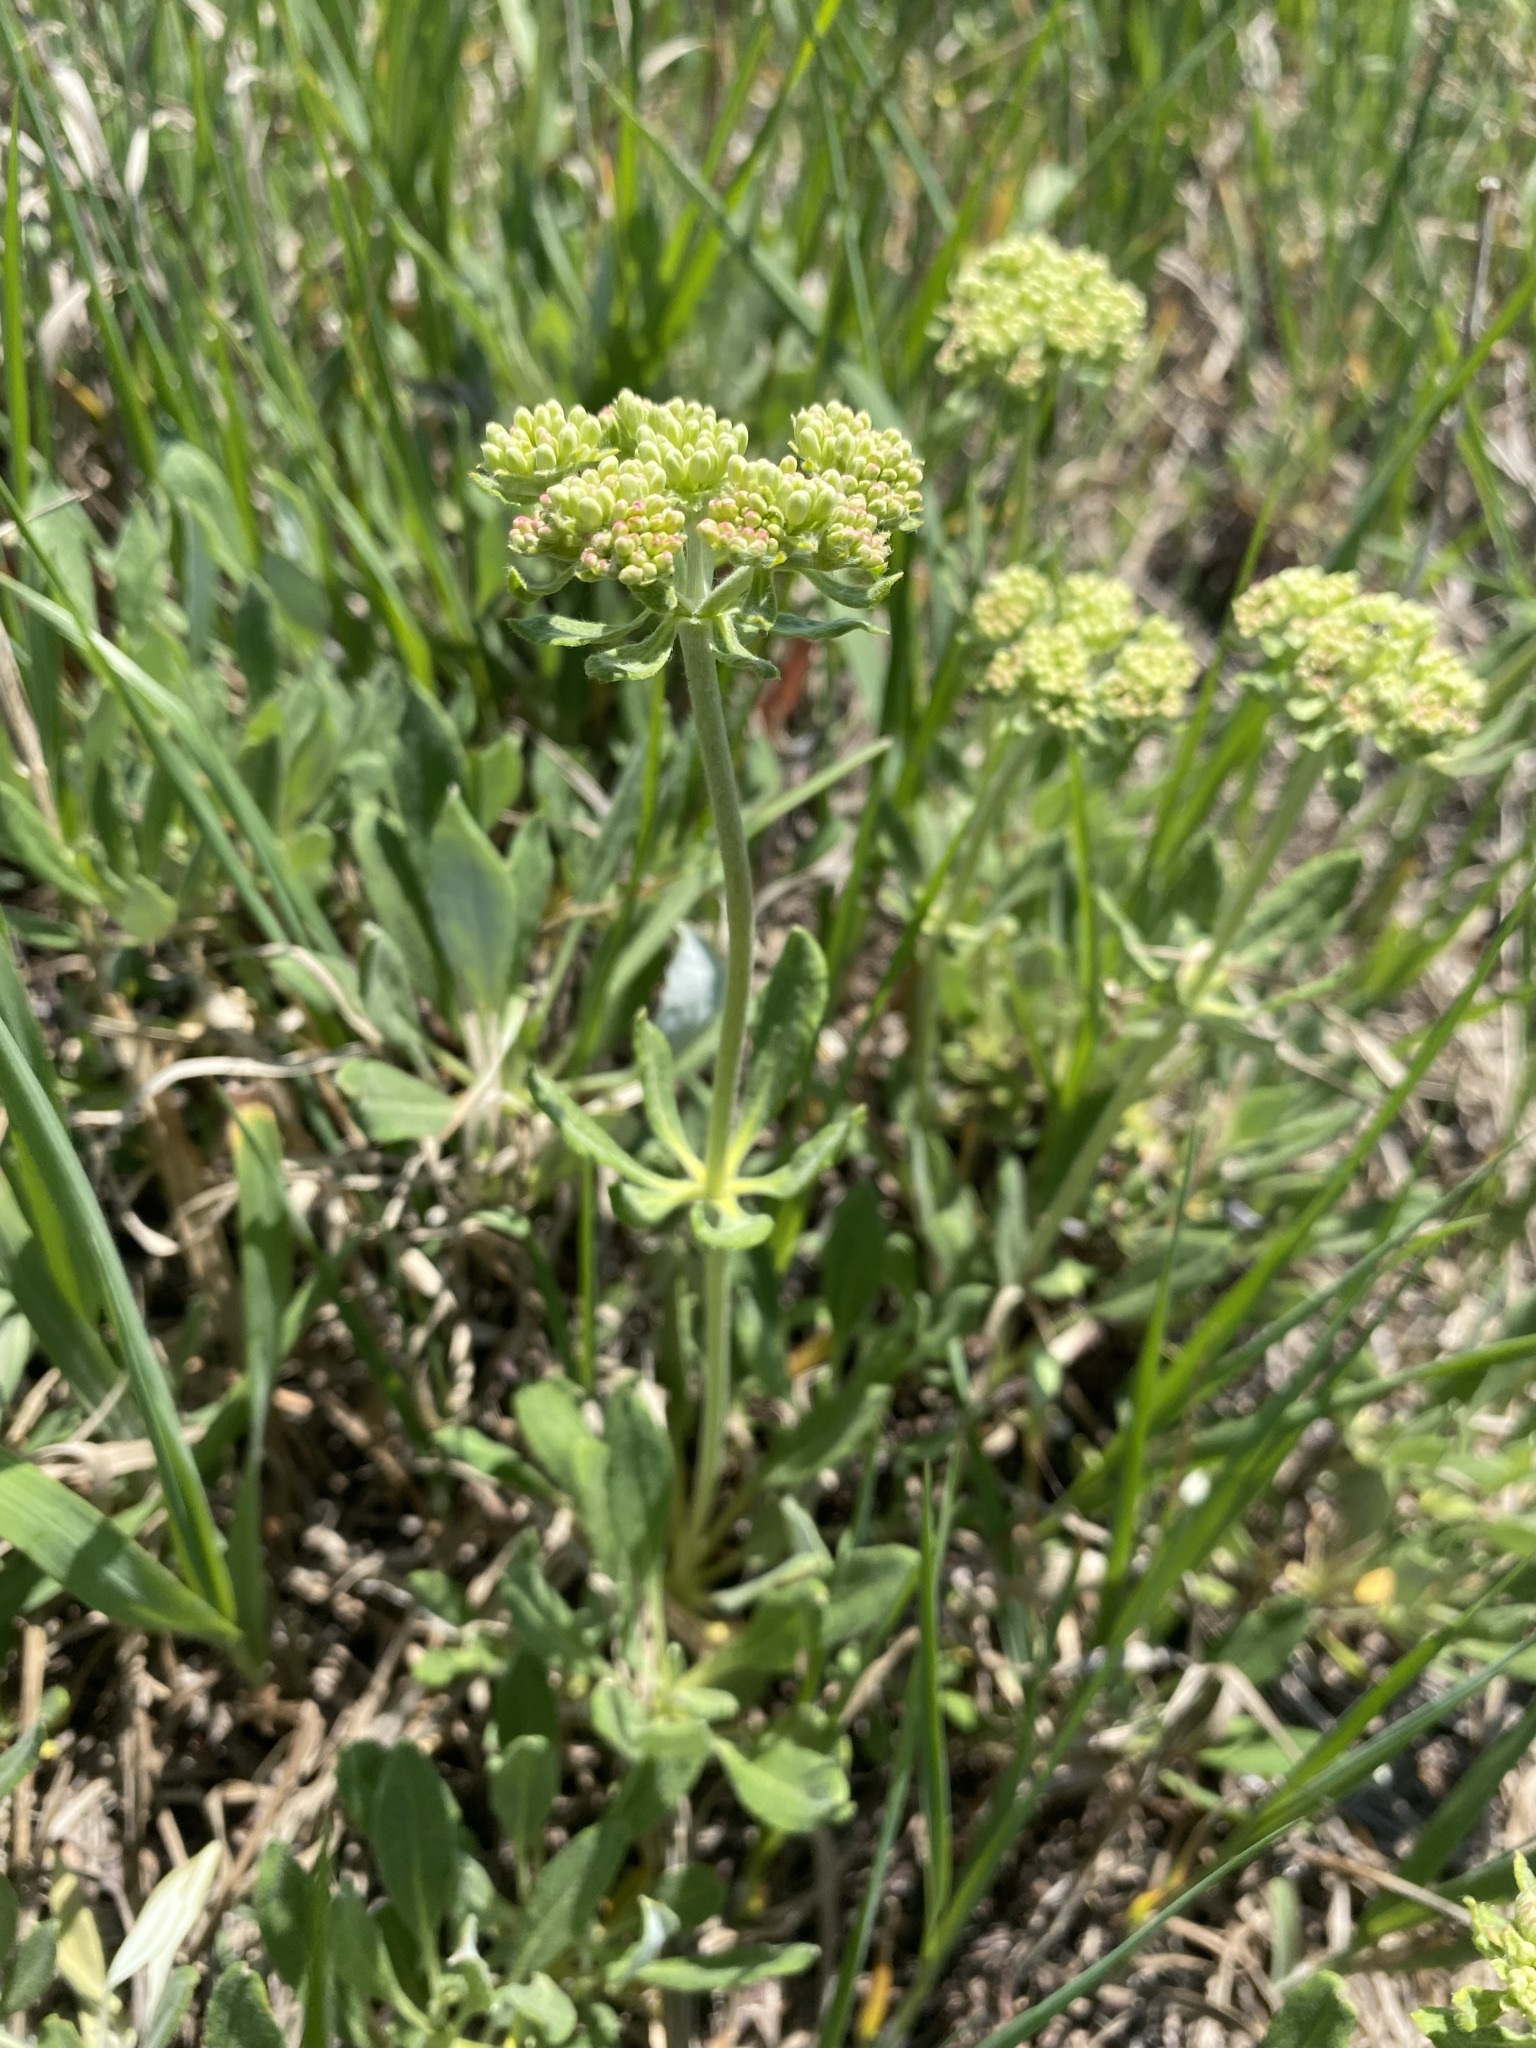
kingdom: Plantae
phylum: Tracheophyta
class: Magnoliopsida
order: Caryophyllales
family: Polygonaceae
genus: Eriogonum
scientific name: Eriogonum heracleoides
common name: Wyeth's buckwheat
